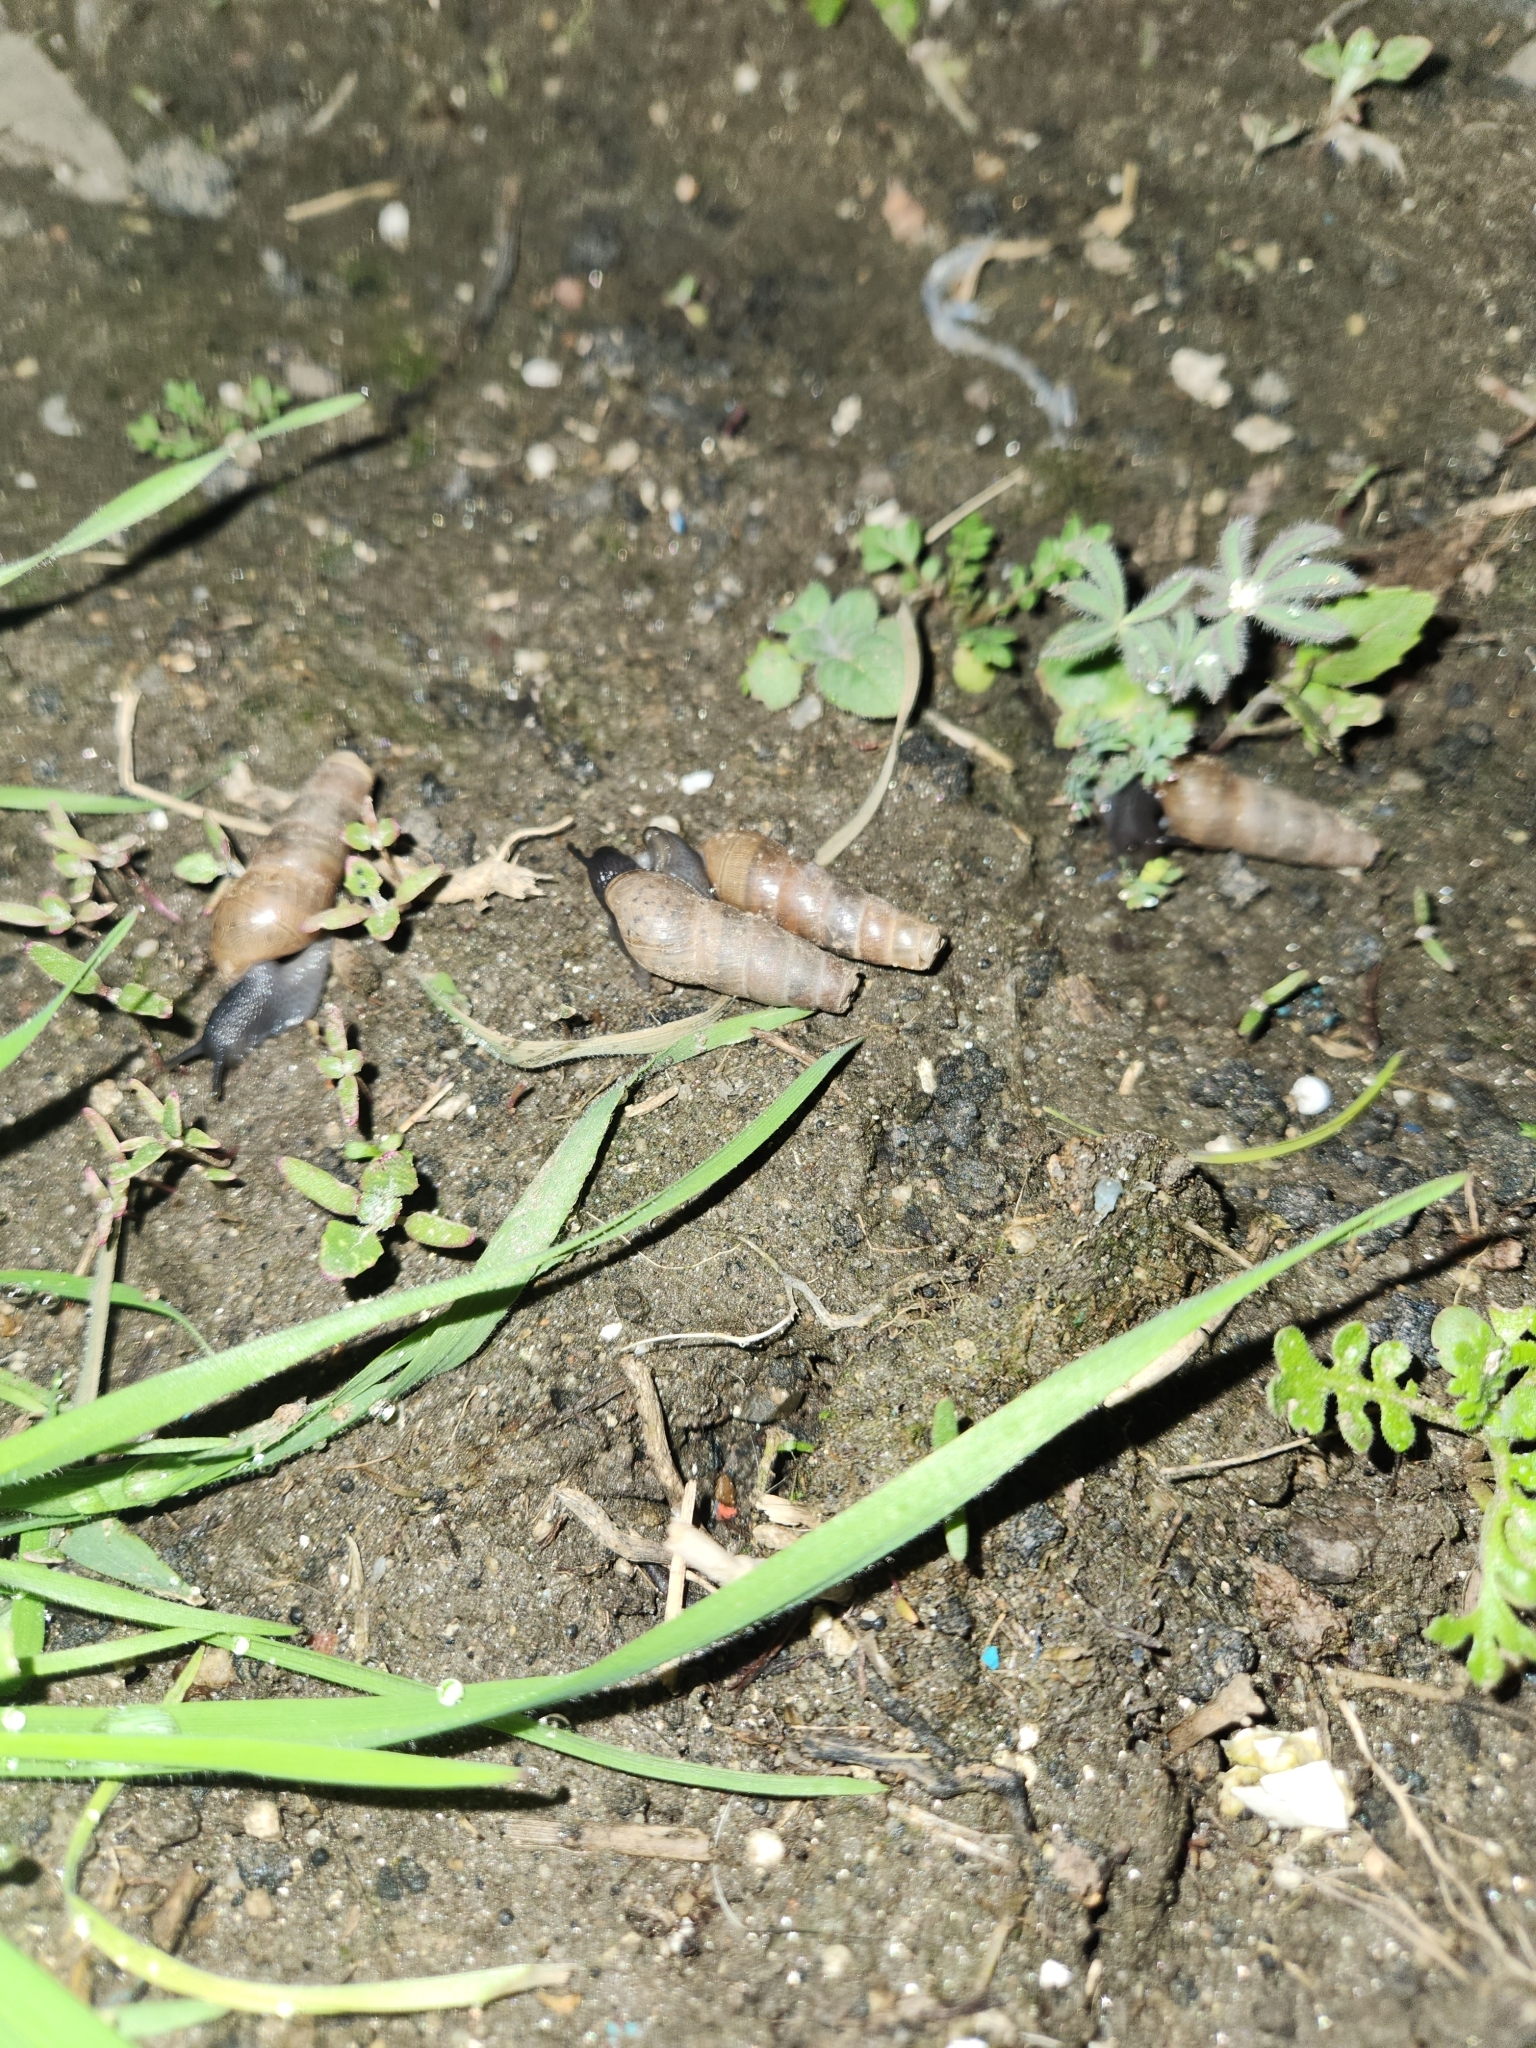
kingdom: Animalia
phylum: Mollusca
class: Gastropoda
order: Stylommatophora
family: Achatinidae
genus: Rumina
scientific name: Rumina decollata
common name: Decollate snail
